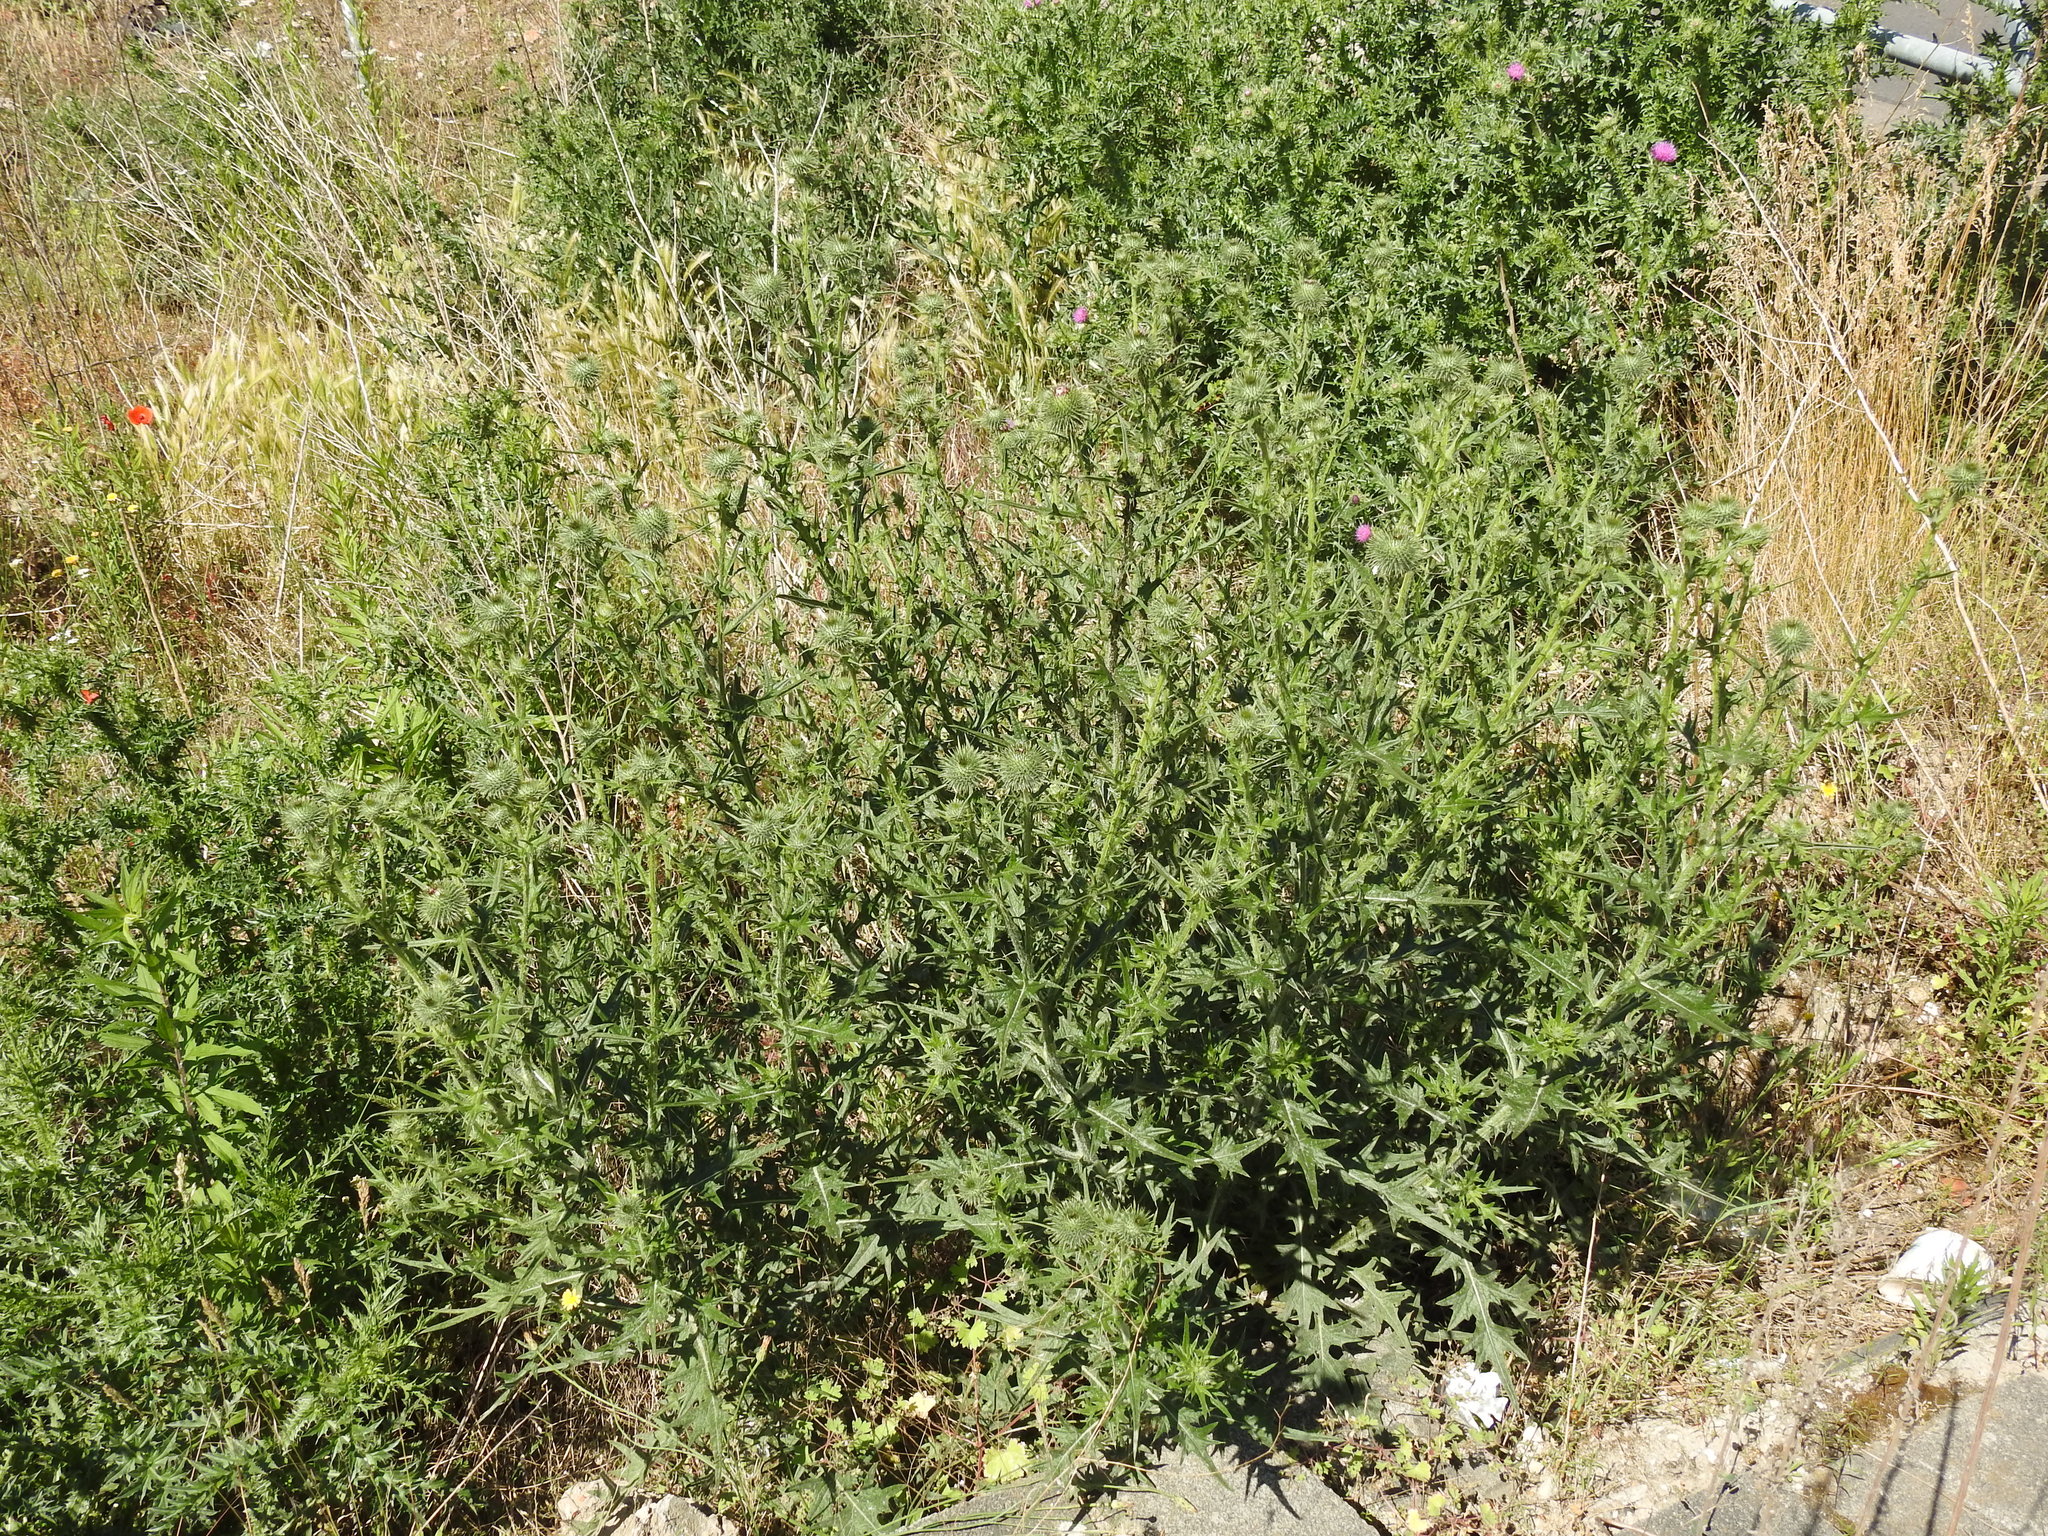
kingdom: Plantae
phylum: Tracheophyta
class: Magnoliopsida
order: Asterales
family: Asteraceae
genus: Cirsium
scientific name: Cirsium vulgare
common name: Bull thistle
